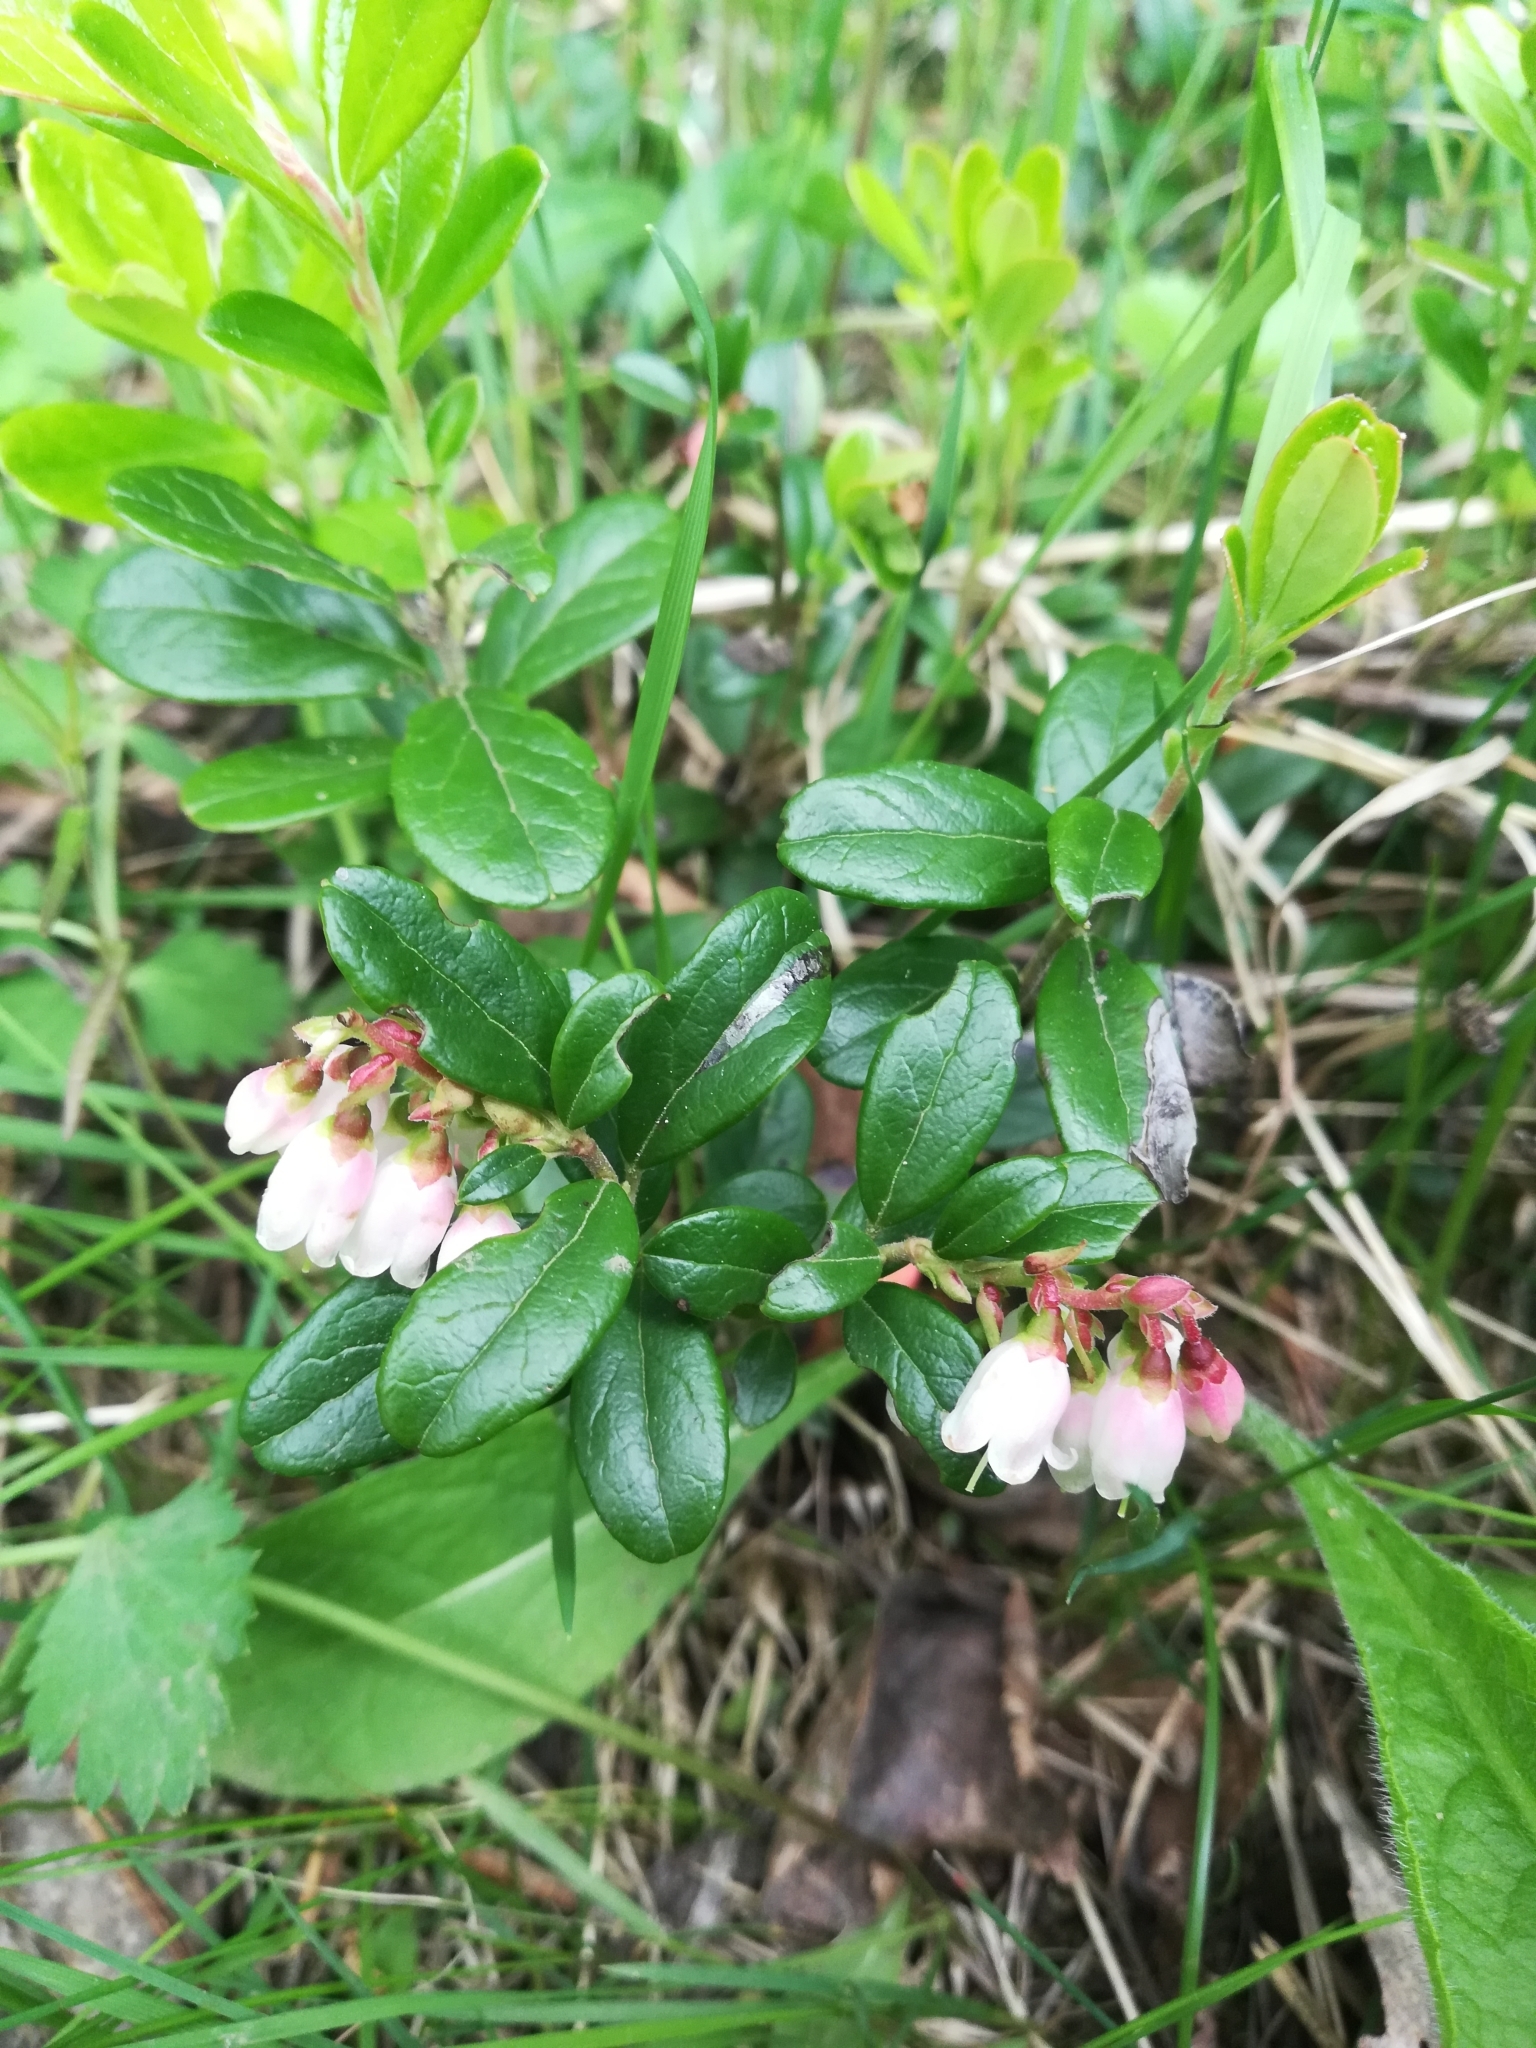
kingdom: Plantae
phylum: Tracheophyta
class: Magnoliopsida
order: Ericales
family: Ericaceae
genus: Vaccinium
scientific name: Vaccinium vitis-idaea
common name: Cowberry
